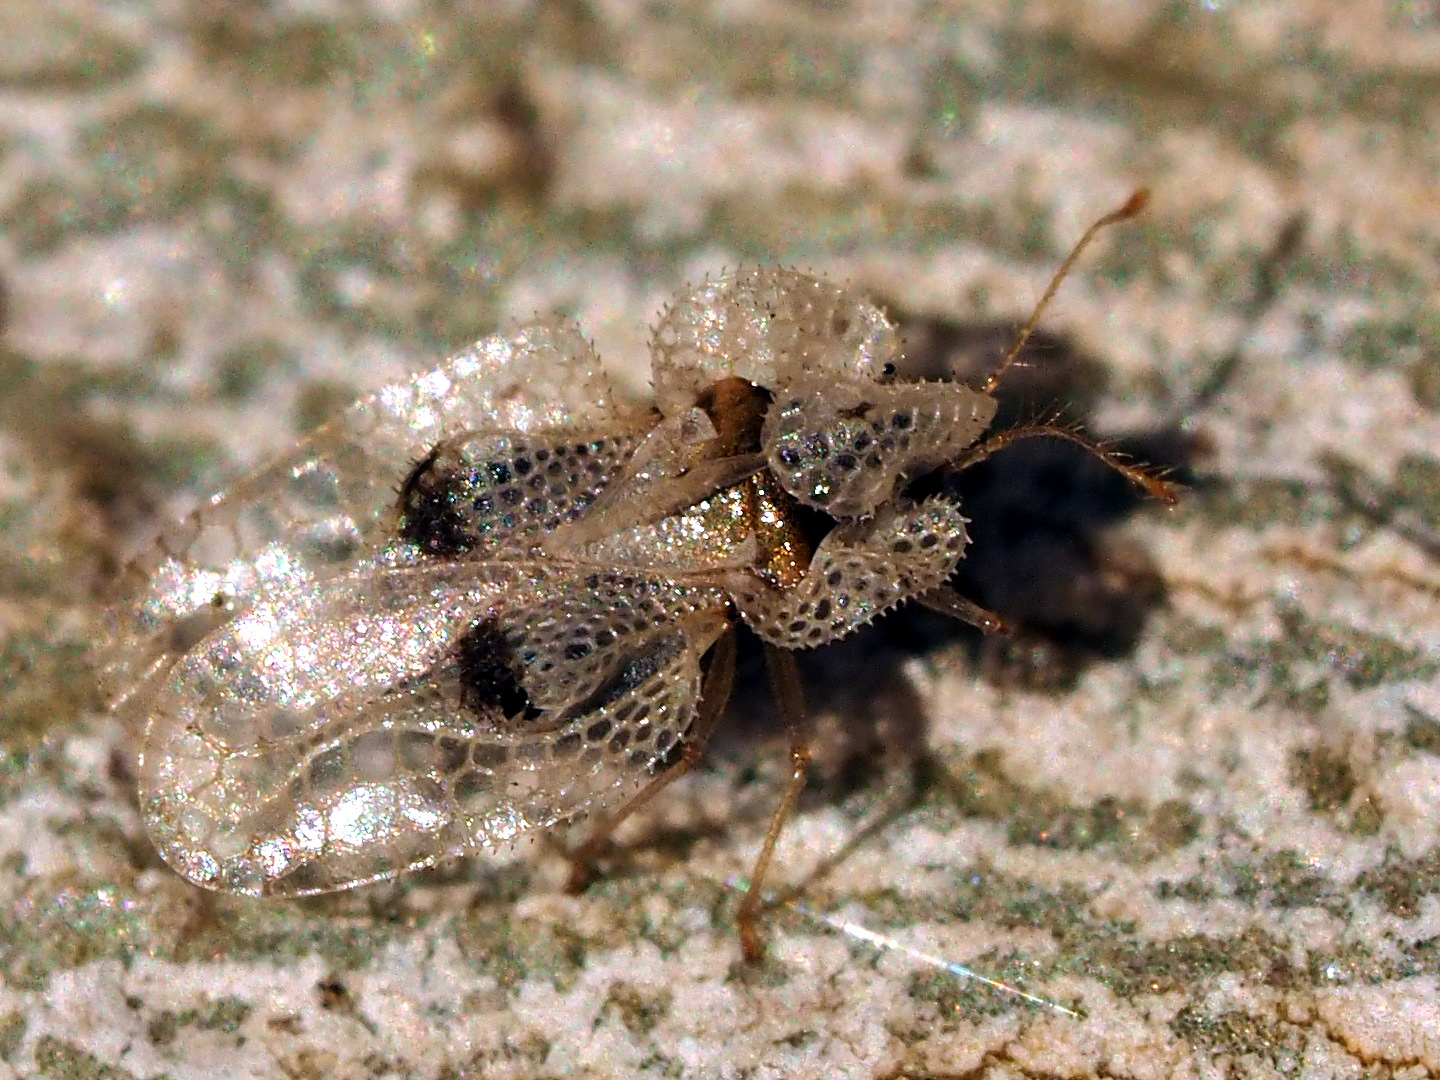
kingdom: Animalia
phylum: Arthropoda
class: Insecta
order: Hemiptera
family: Tingidae
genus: Corythucha
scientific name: Corythucha ciliata
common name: Sycamore lace bug
